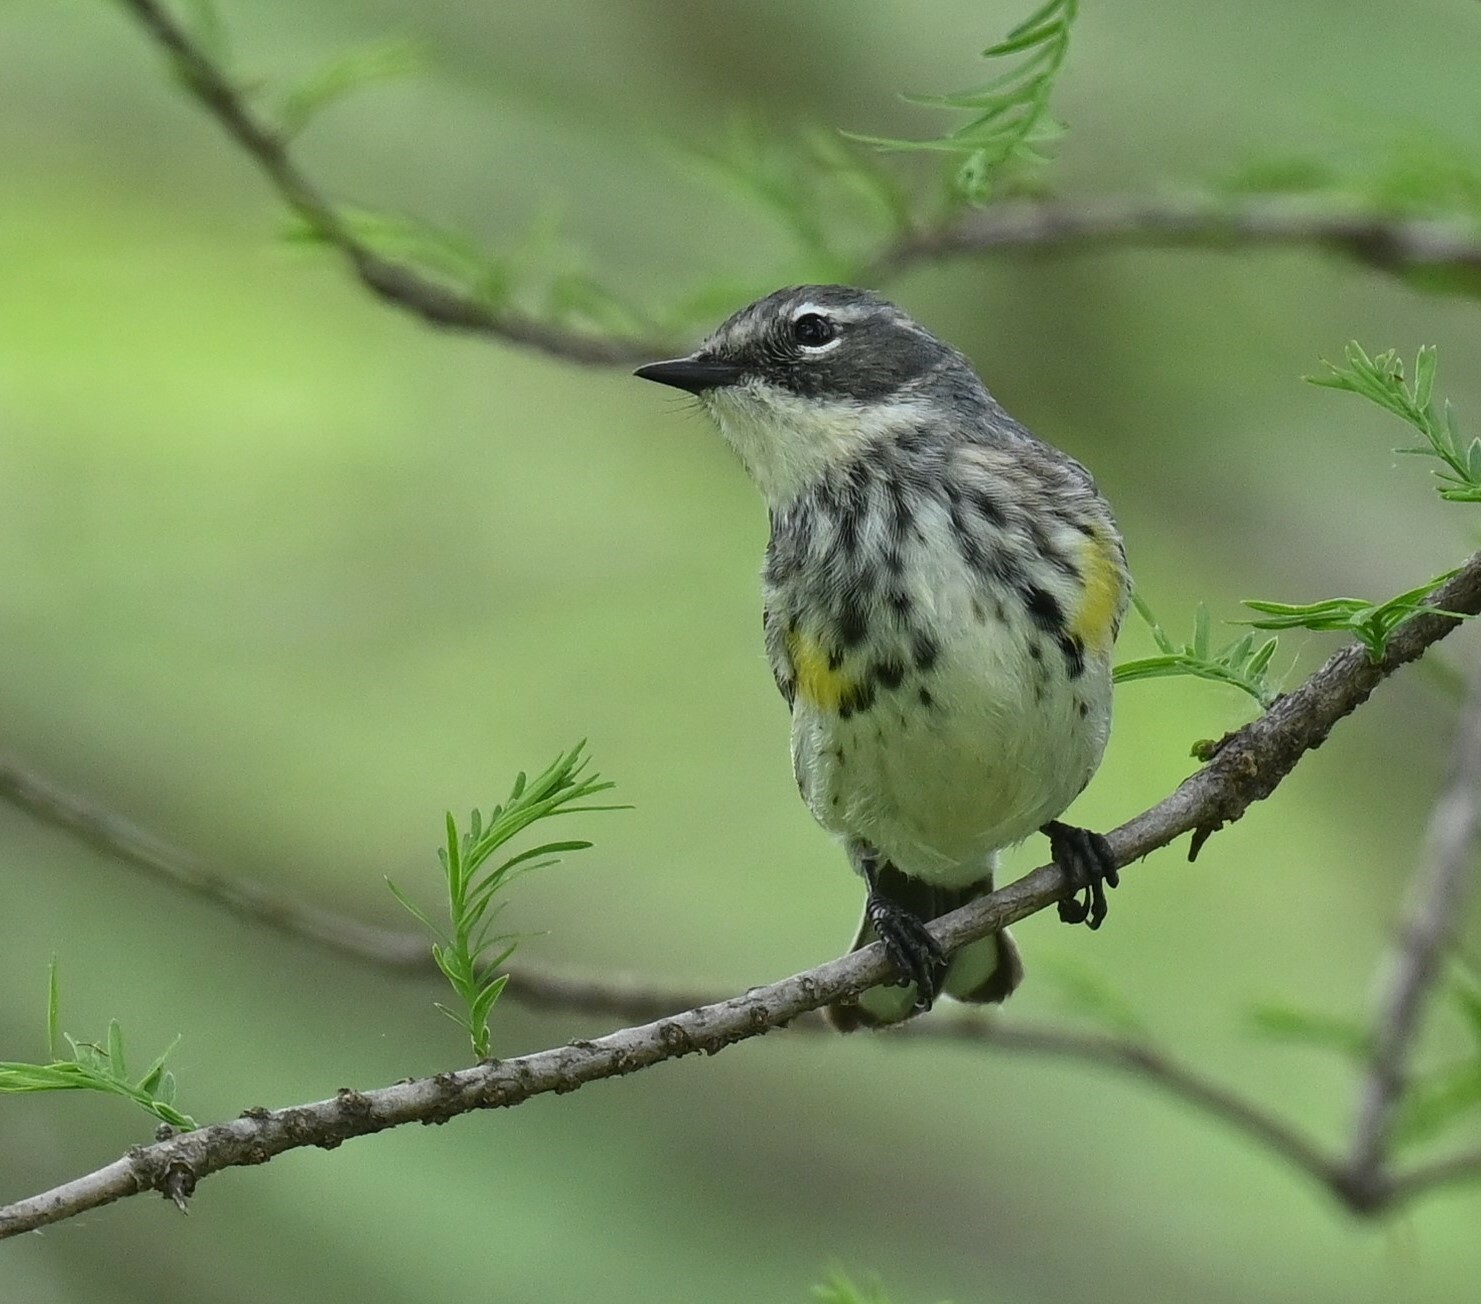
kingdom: Animalia
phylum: Chordata
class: Aves
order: Passeriformes
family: Parulidae
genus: Setophaga
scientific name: Setophaga coronata
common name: Myrtle warbler
